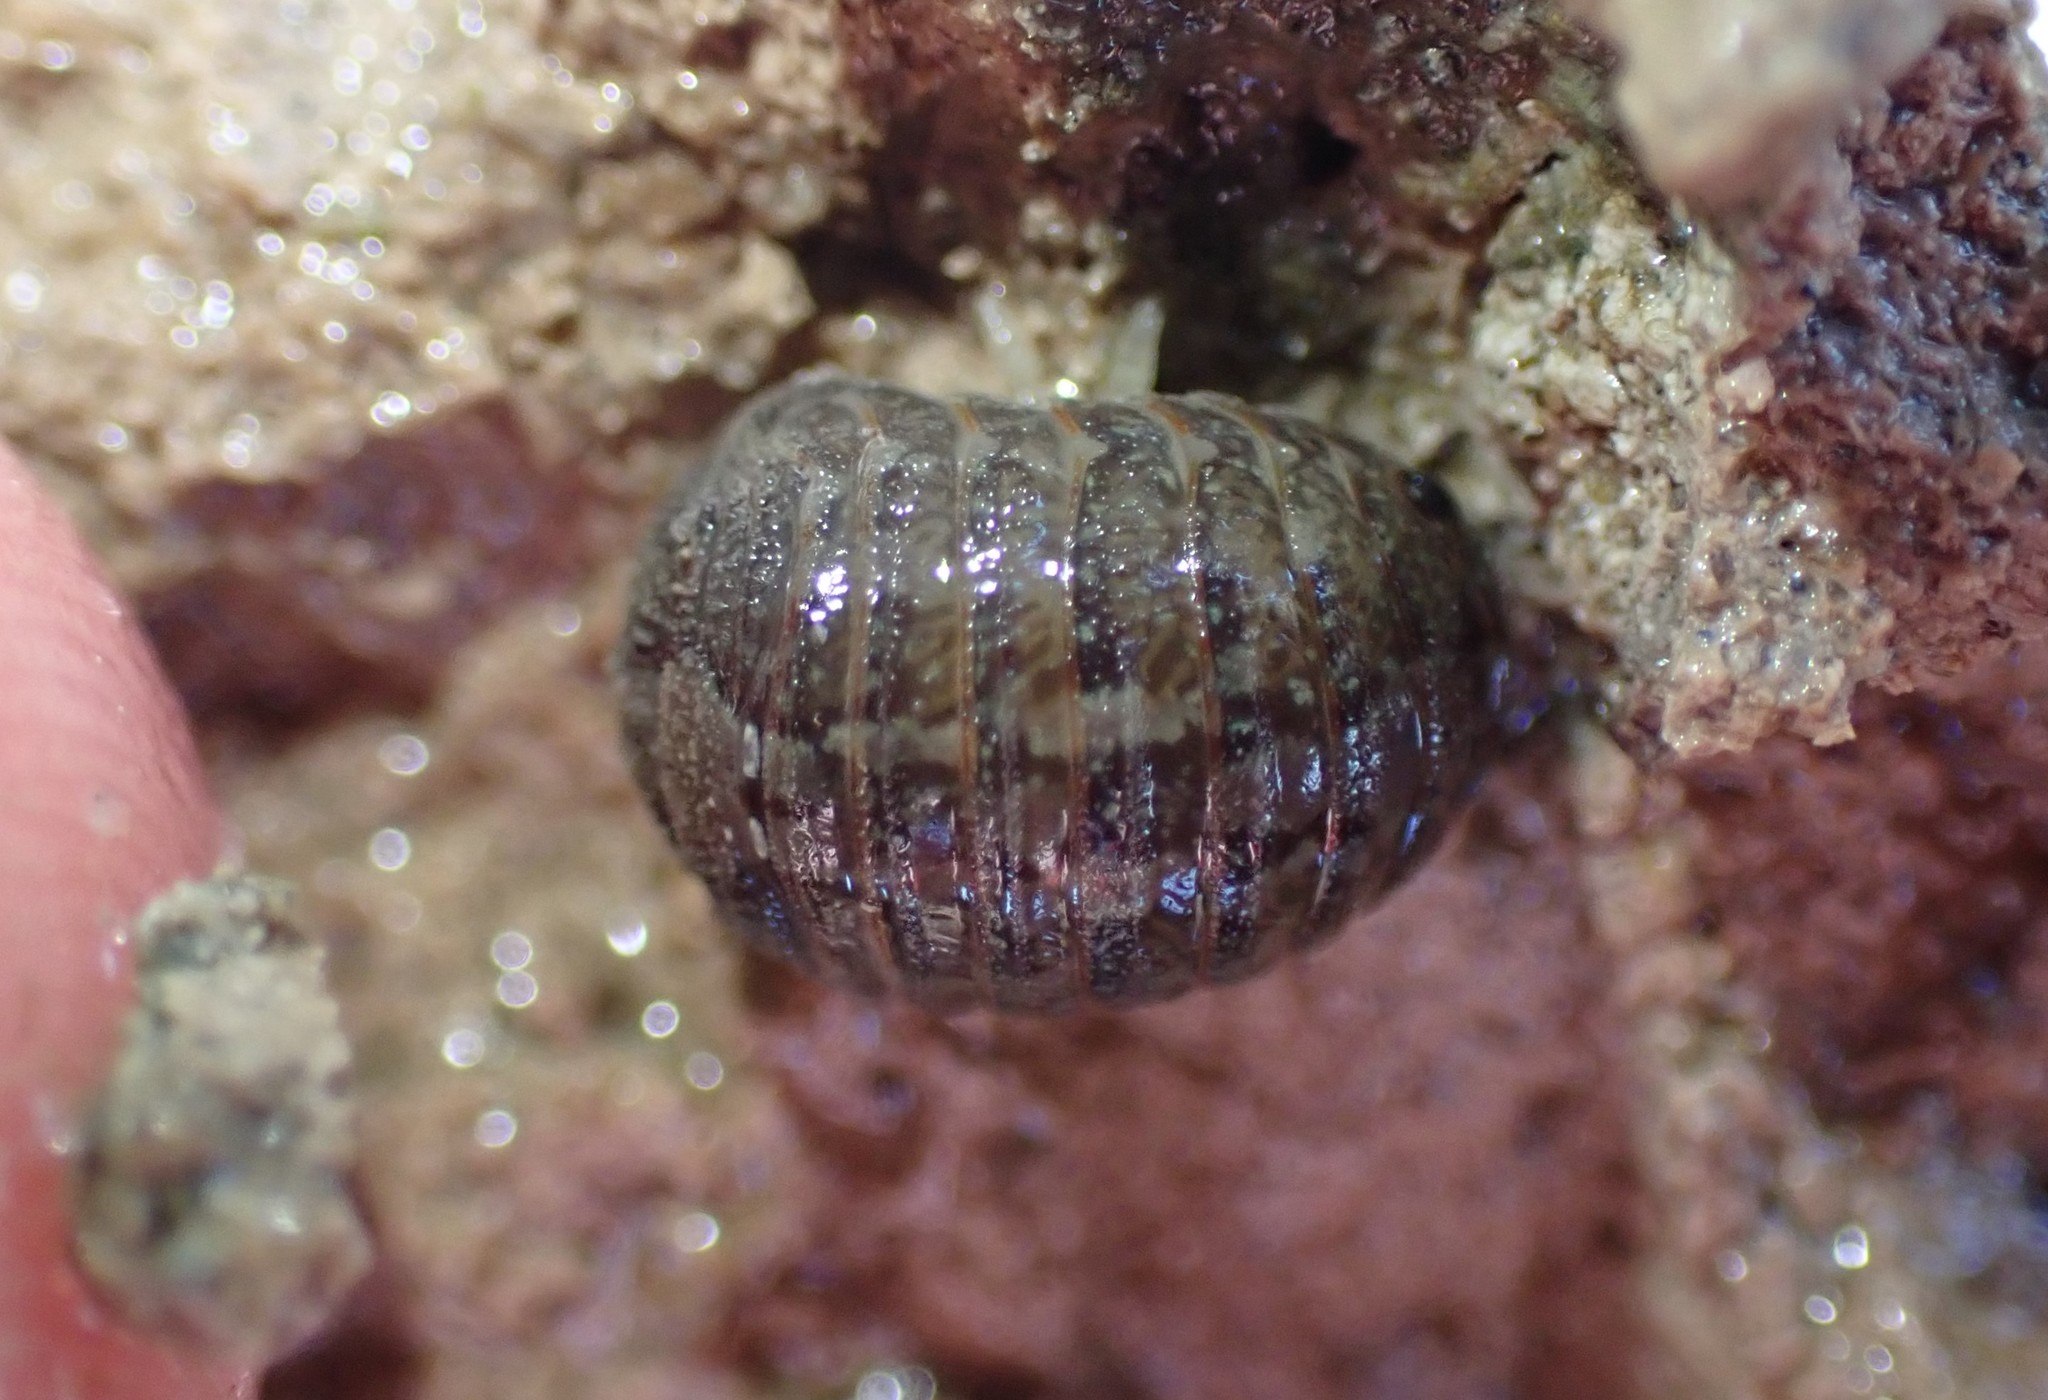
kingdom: Animalia
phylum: Arthropoda
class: Malacostraca
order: Isopoda
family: Sphaeromatidae
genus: Sphaeroma
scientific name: Sphaeroma quoianum
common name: Isopod
